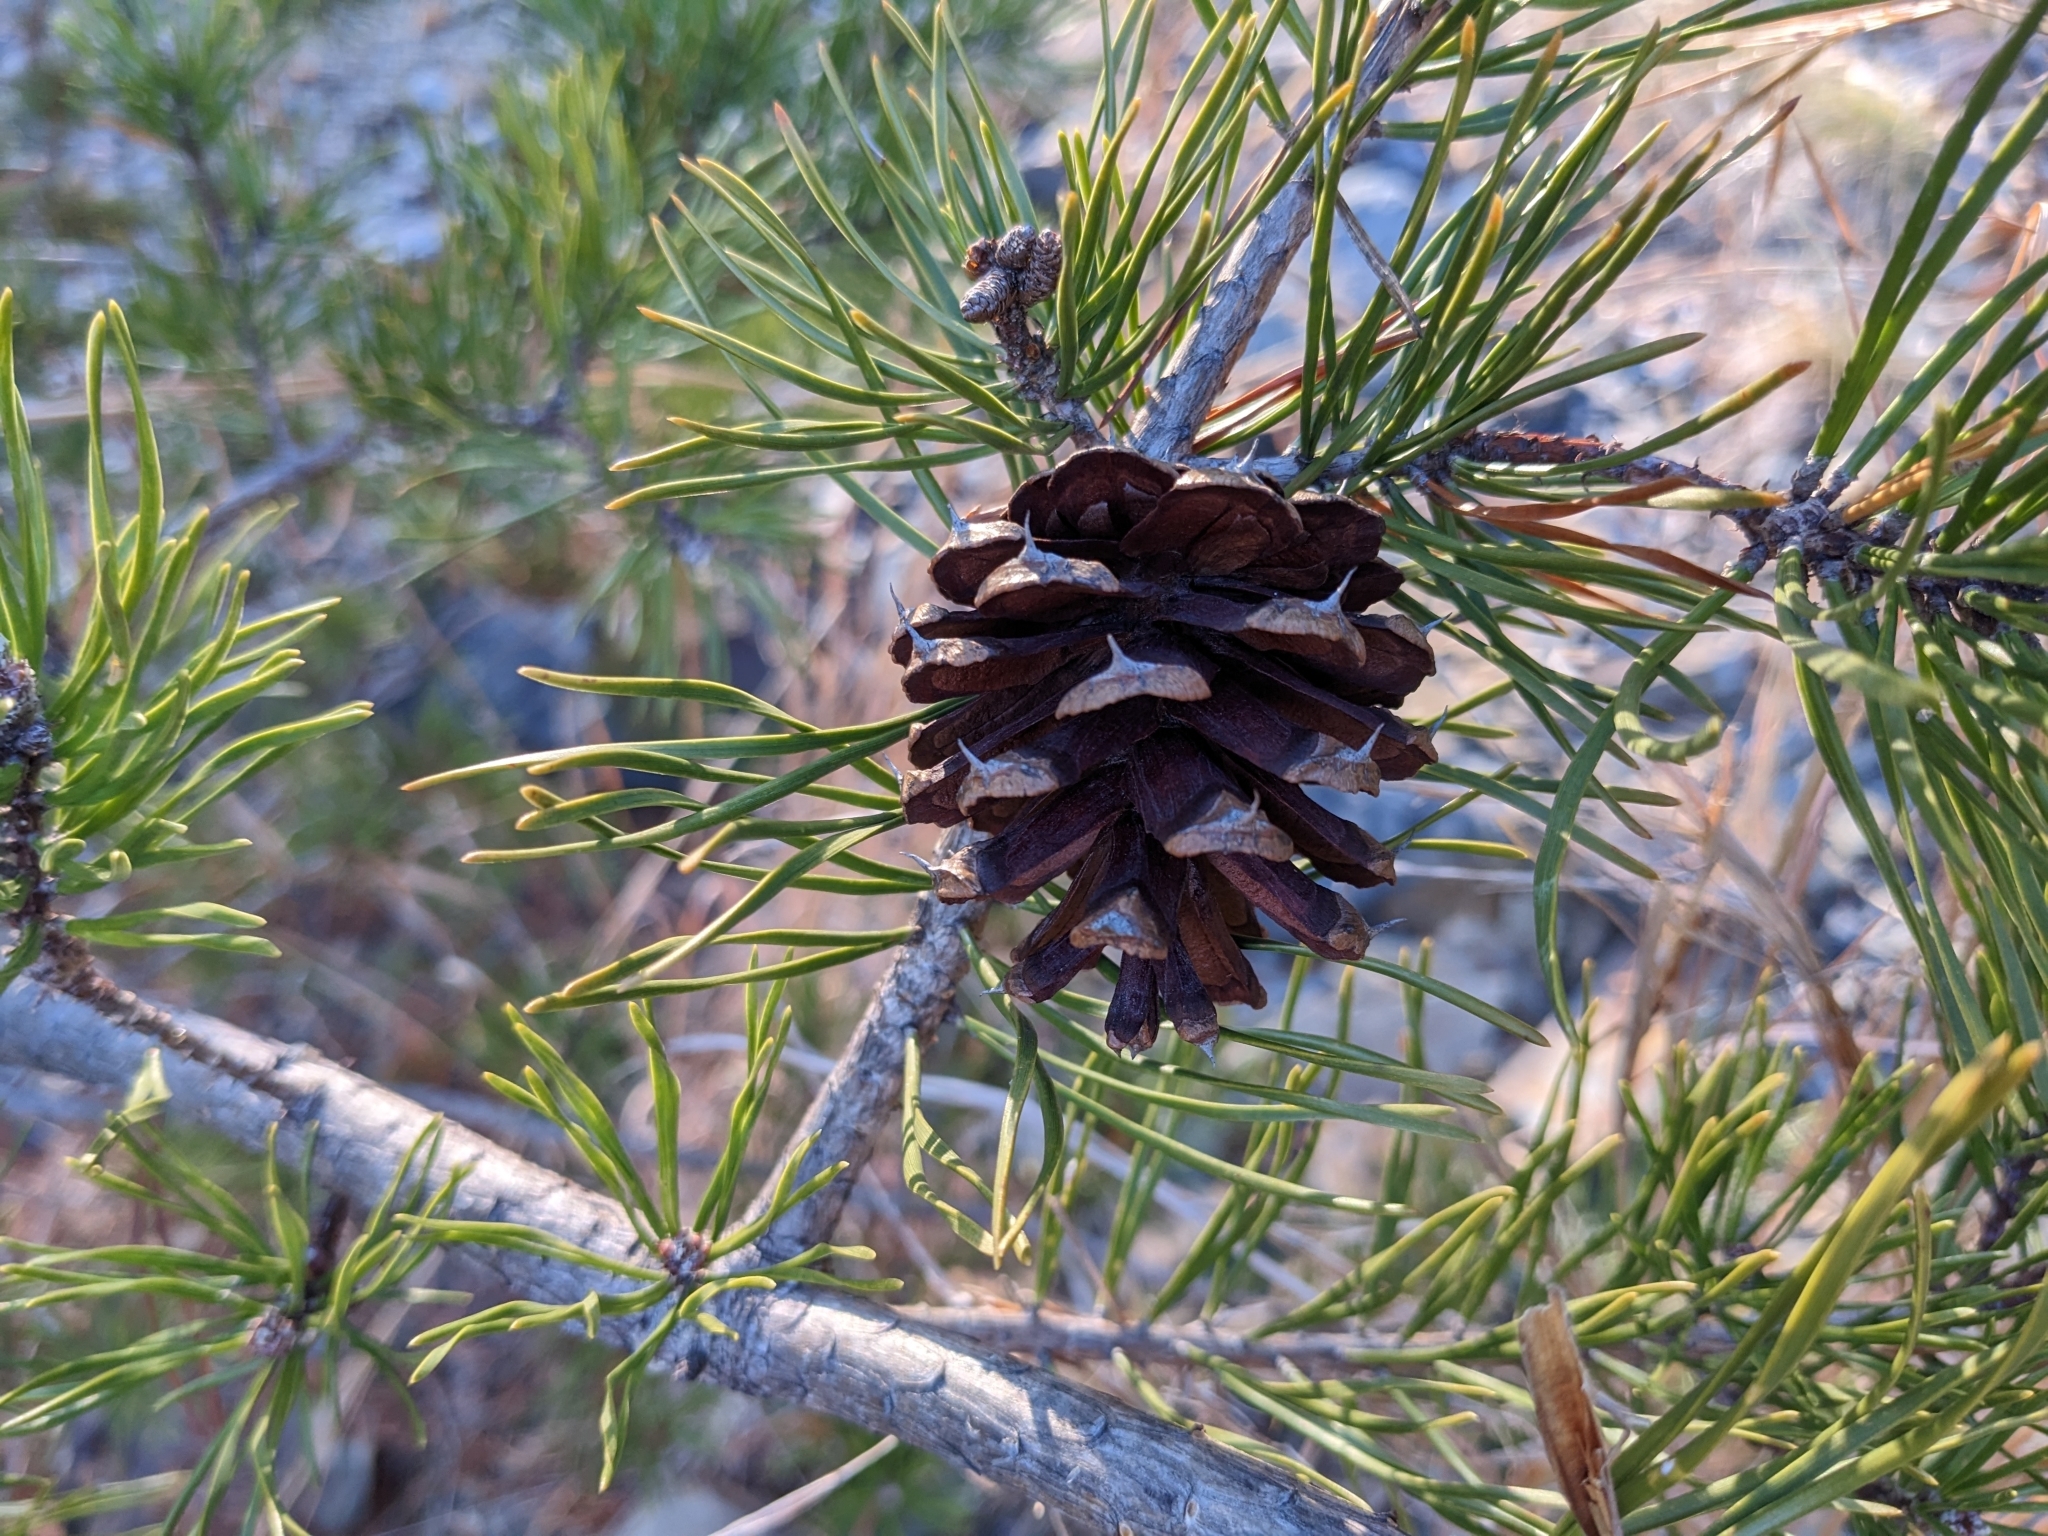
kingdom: Plantae
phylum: Tracheophyta
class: Pinopsida
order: Pinales
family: Pinaceae
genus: Pinus
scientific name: Pinus virginiana
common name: Scrub pine
